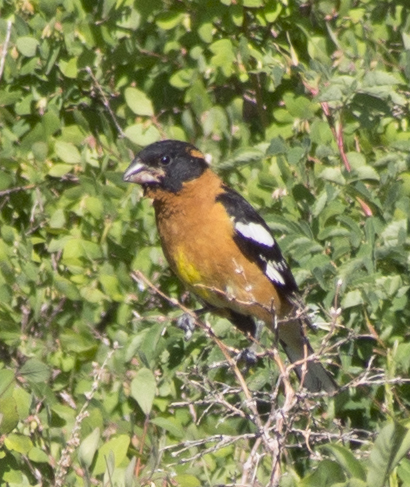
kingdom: Animalia
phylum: Chordata
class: Aves
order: Passeriformes
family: Cardinalidae
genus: Pheucticus
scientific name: Pheucticus melanocephalus
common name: Black-headed grosbeak
